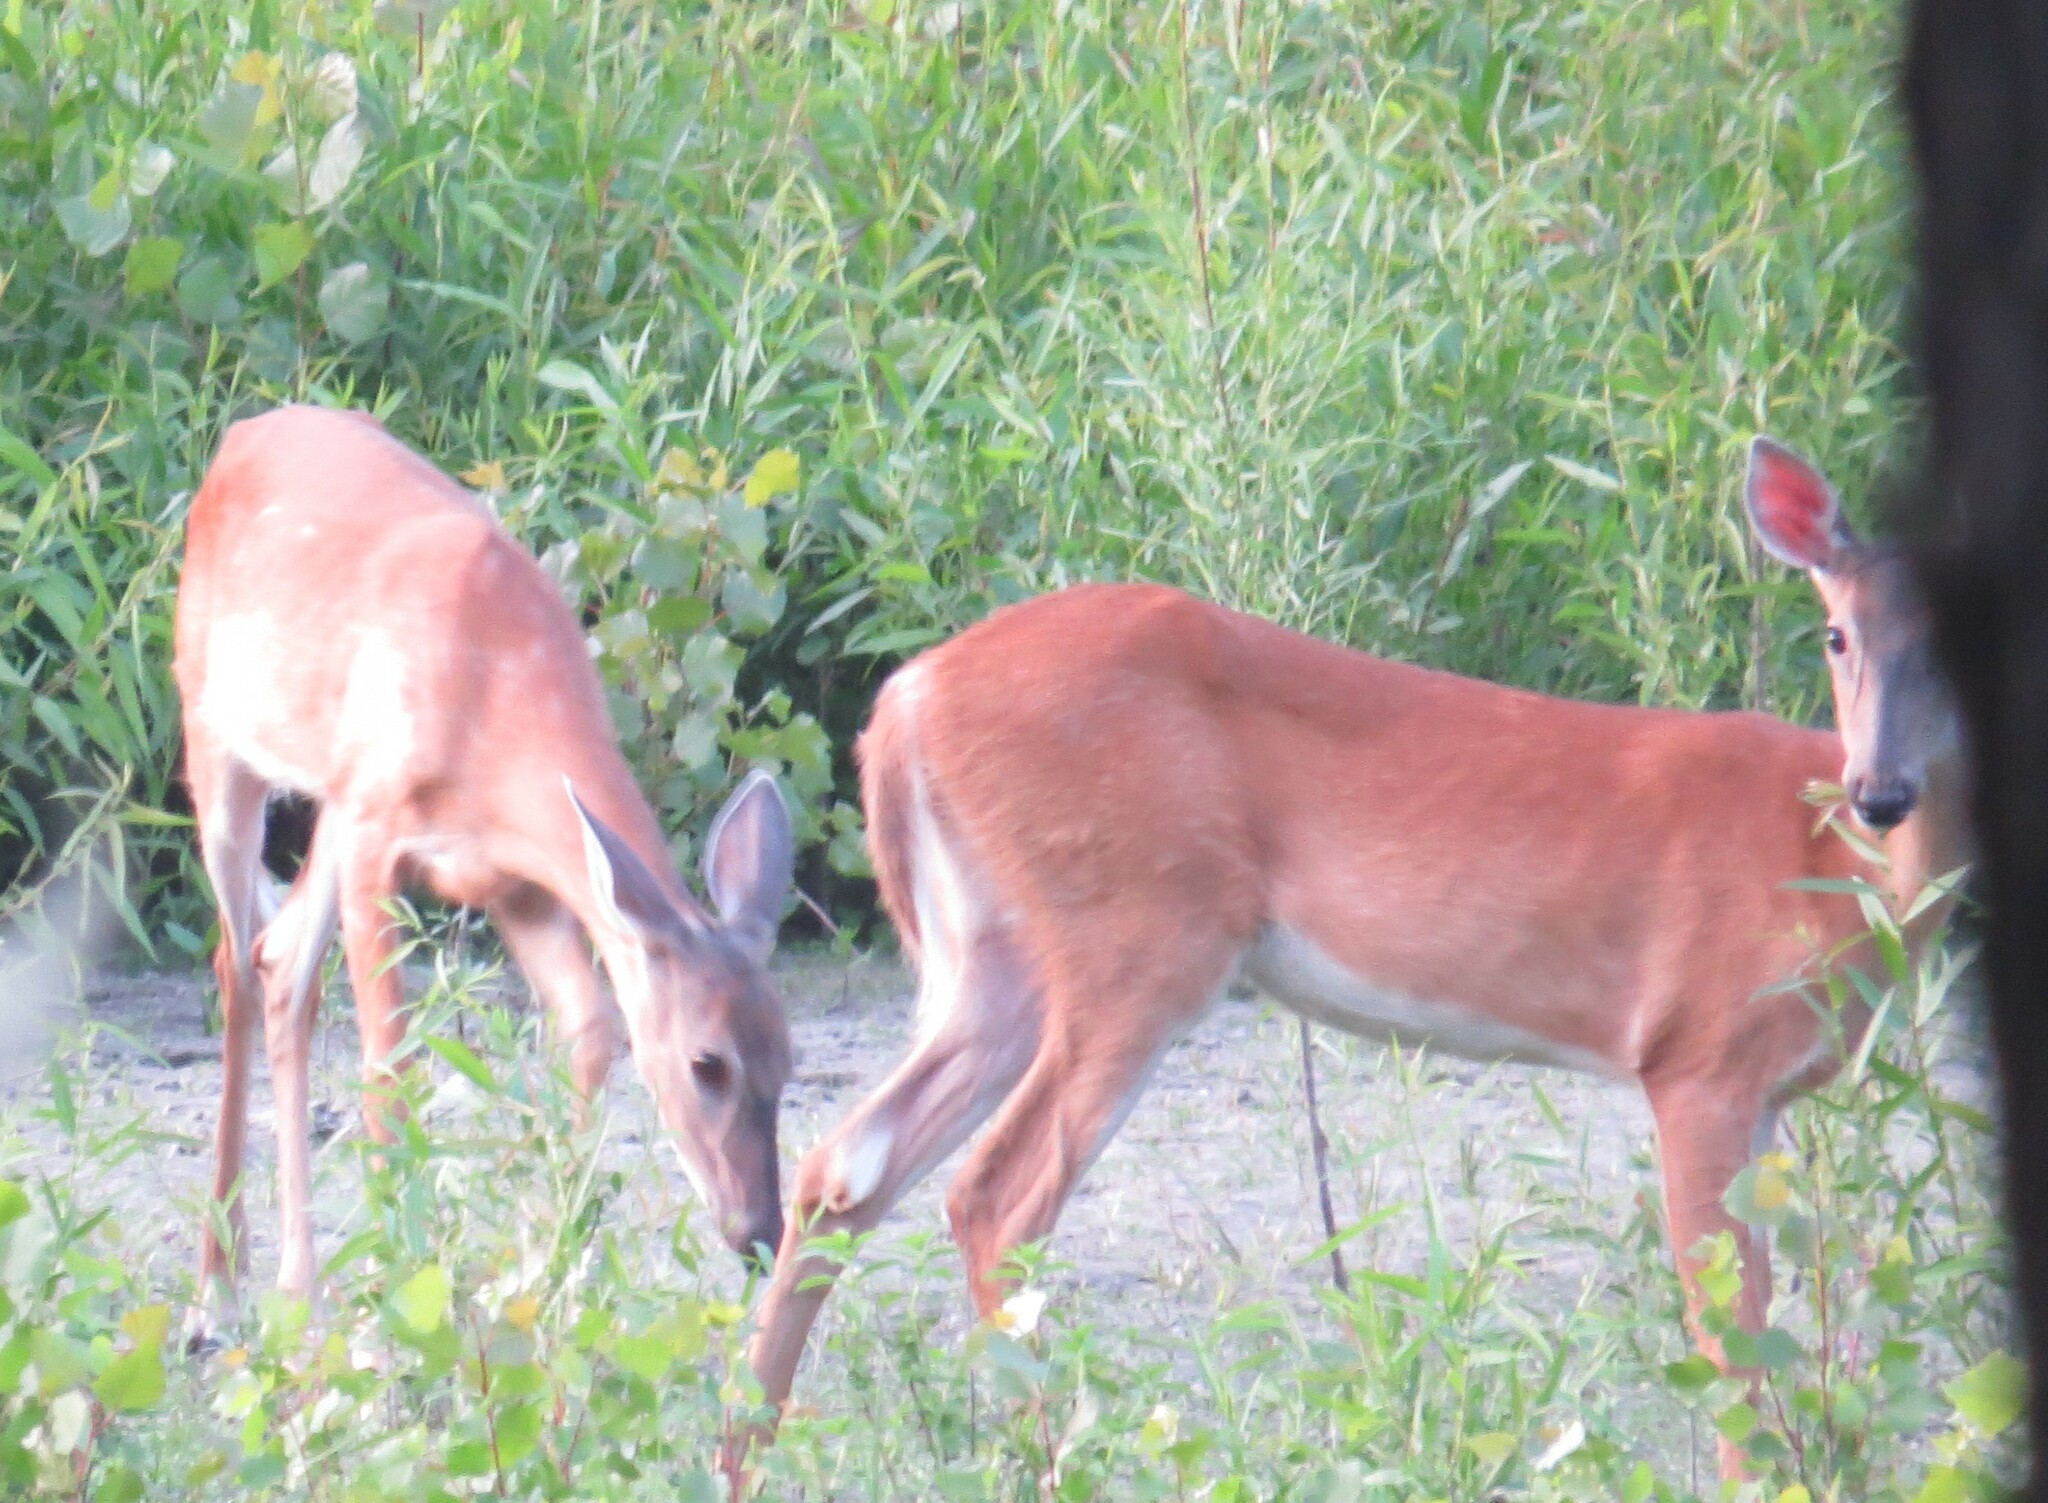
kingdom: Animalia
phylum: Chordata
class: Mammalia
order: Artiodactyla
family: Cervidae
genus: Odocoileus
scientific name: Odocoileus virginianus
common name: White-tailed deer
